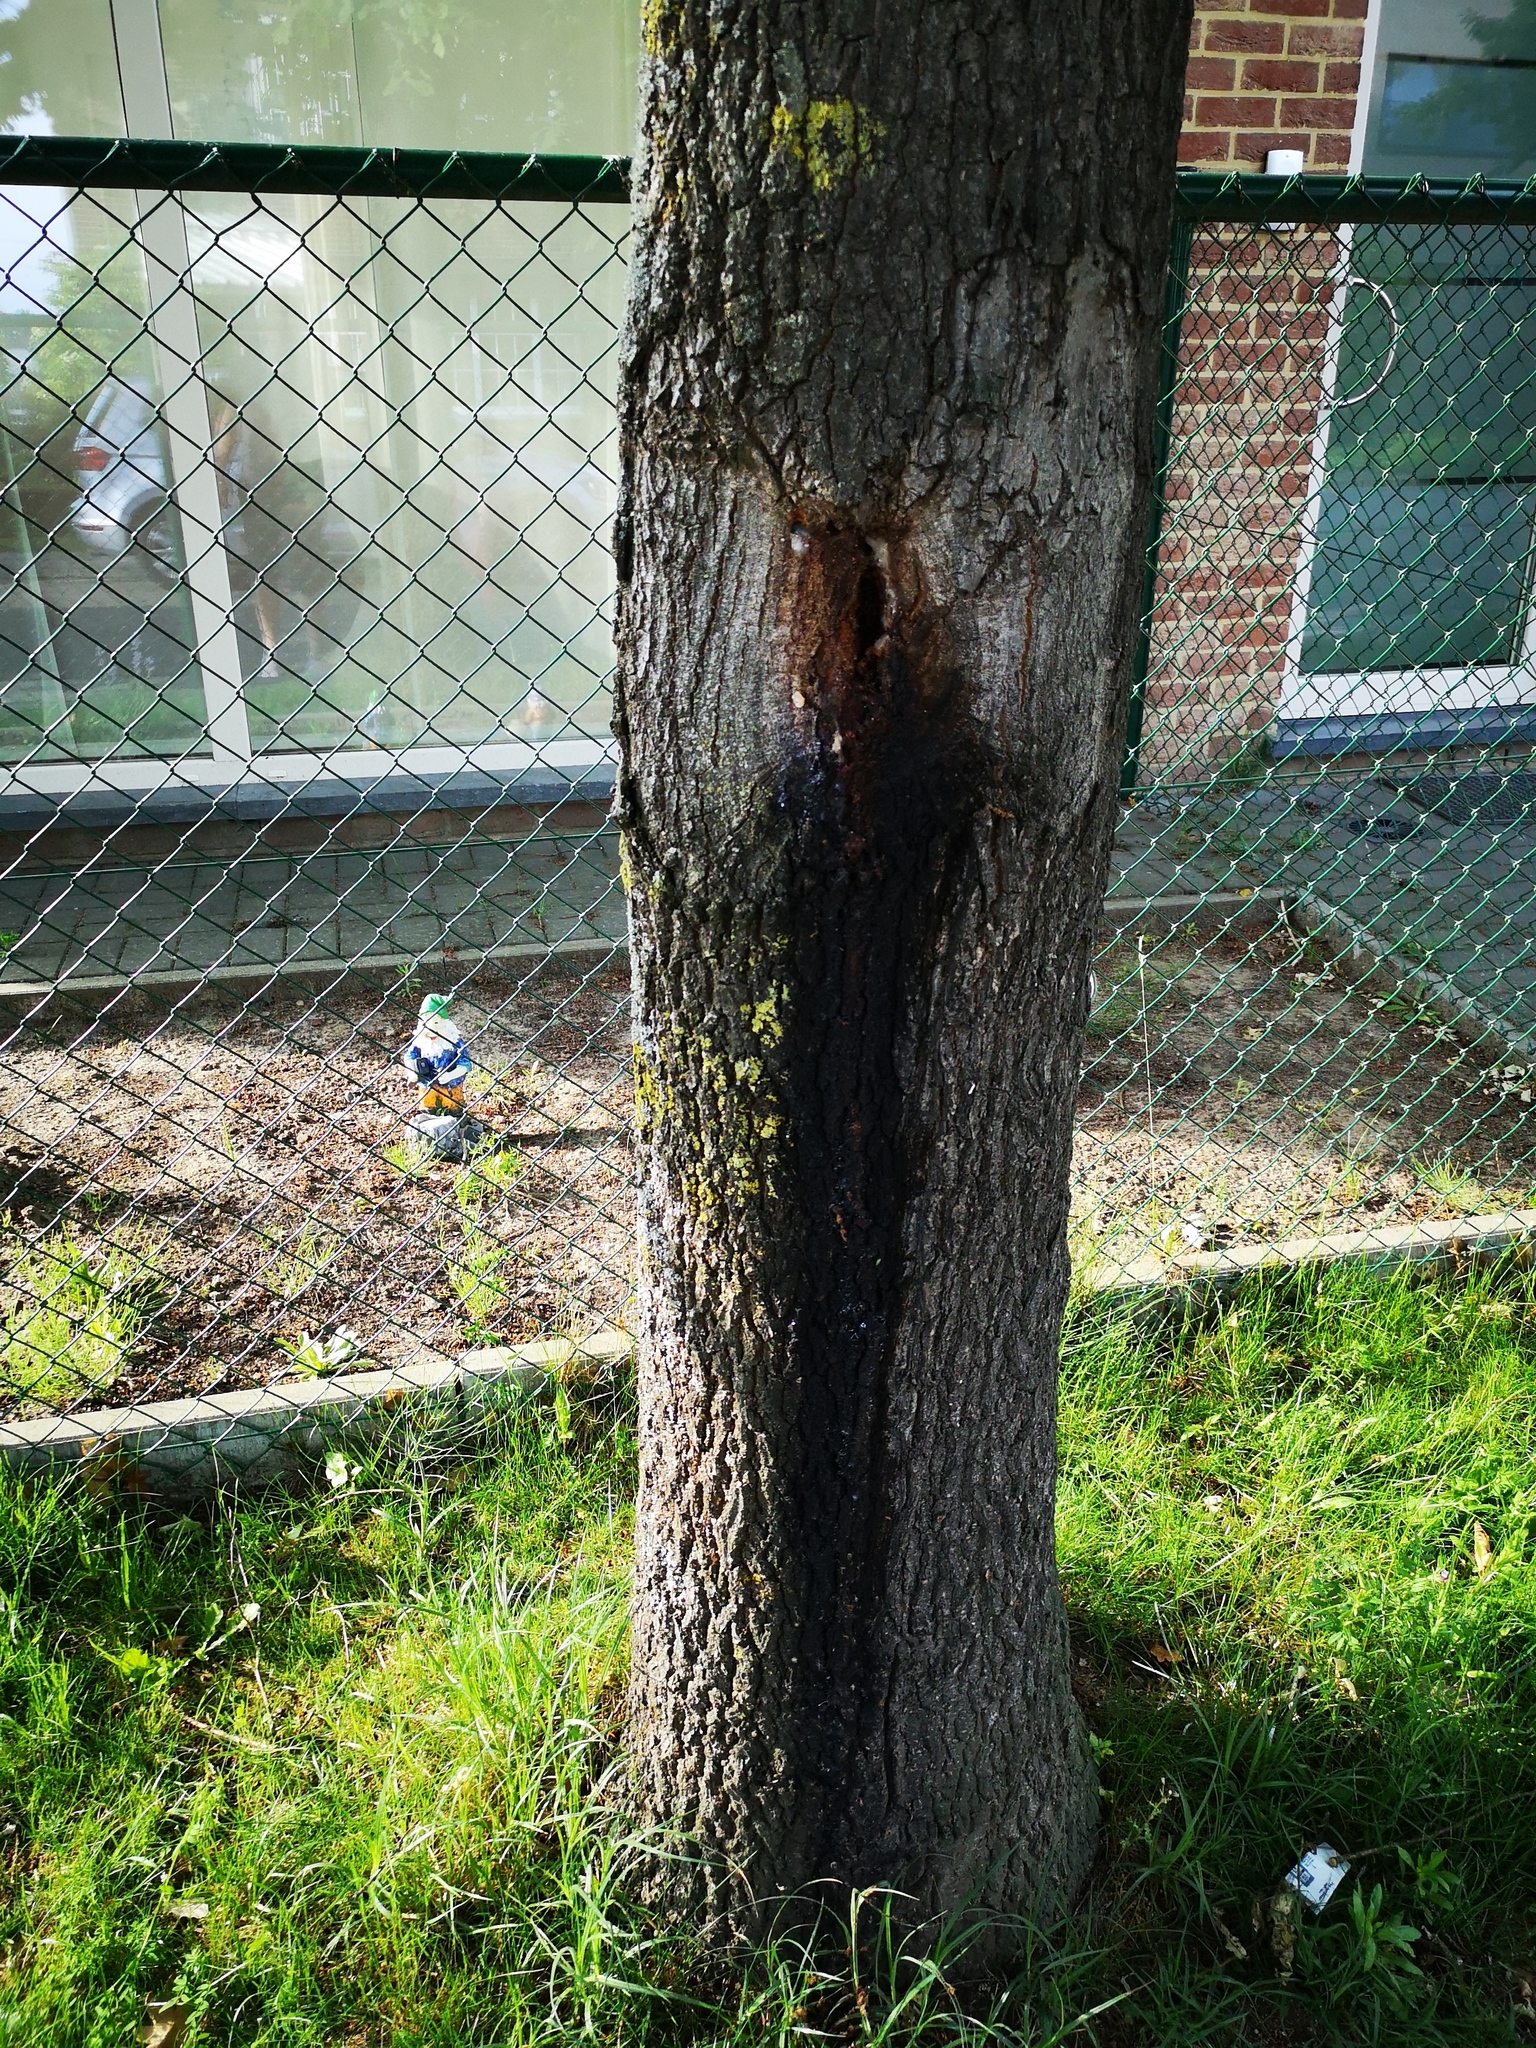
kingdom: Animalia
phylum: Arthropoda
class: Insecta
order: Hymenoptera
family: Vespidae
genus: Vespa
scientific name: Vespa crabro
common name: Hornet
